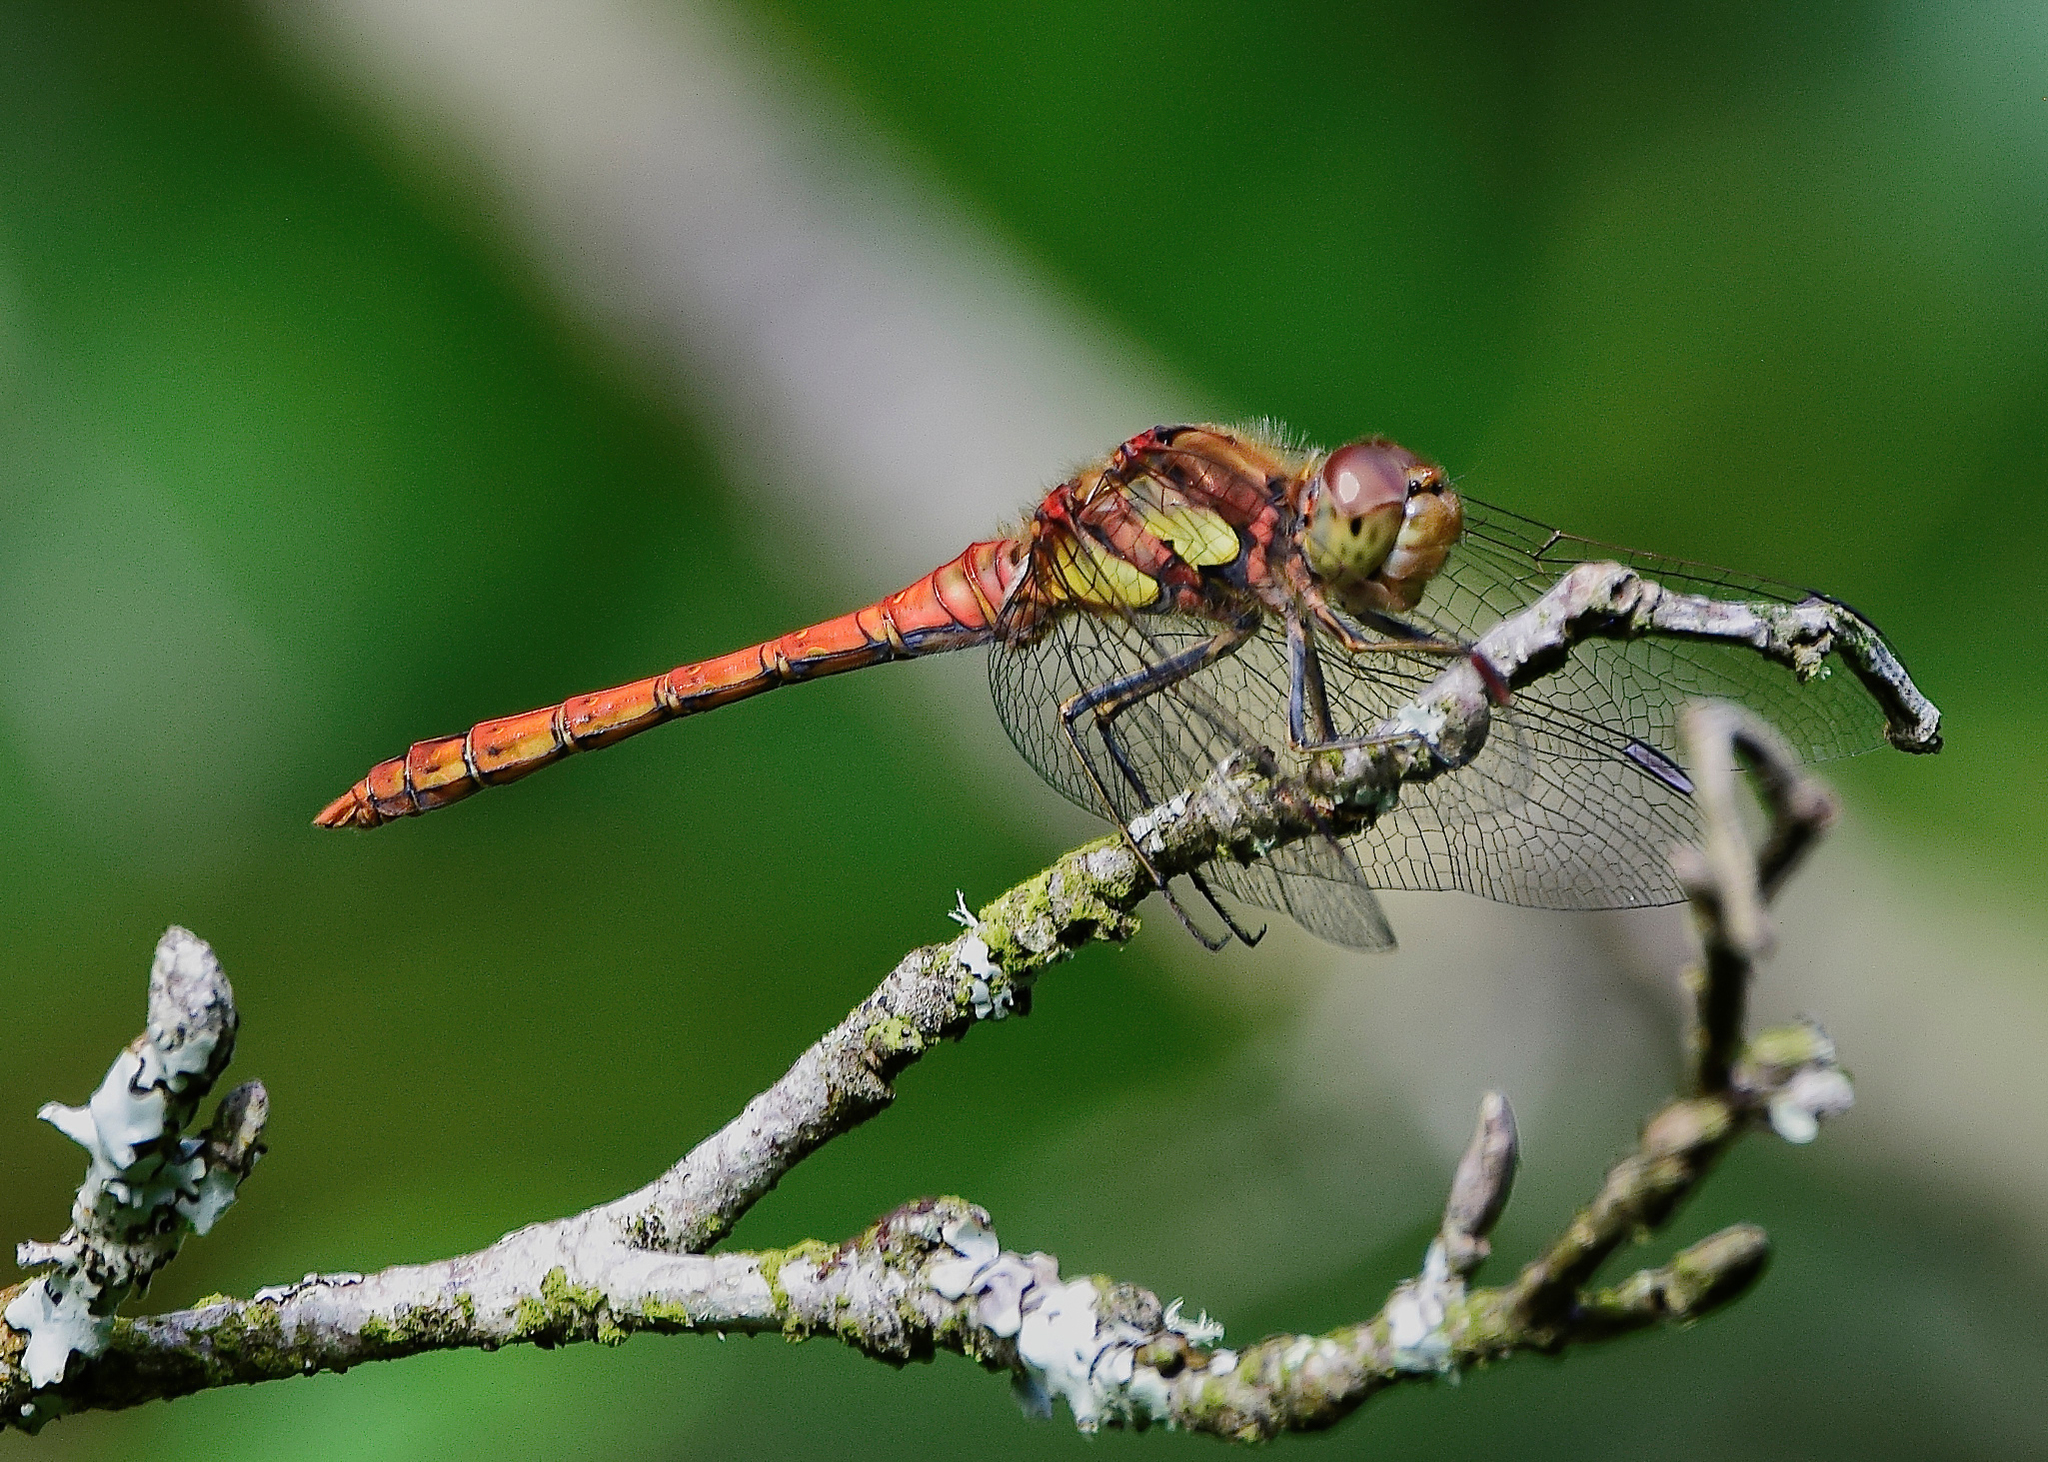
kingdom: Animalia
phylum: Arthropoda
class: Insecta
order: Odonata
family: Libellulidae
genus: Sympetrum
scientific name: Sympetrum striolatum
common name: Common darter
